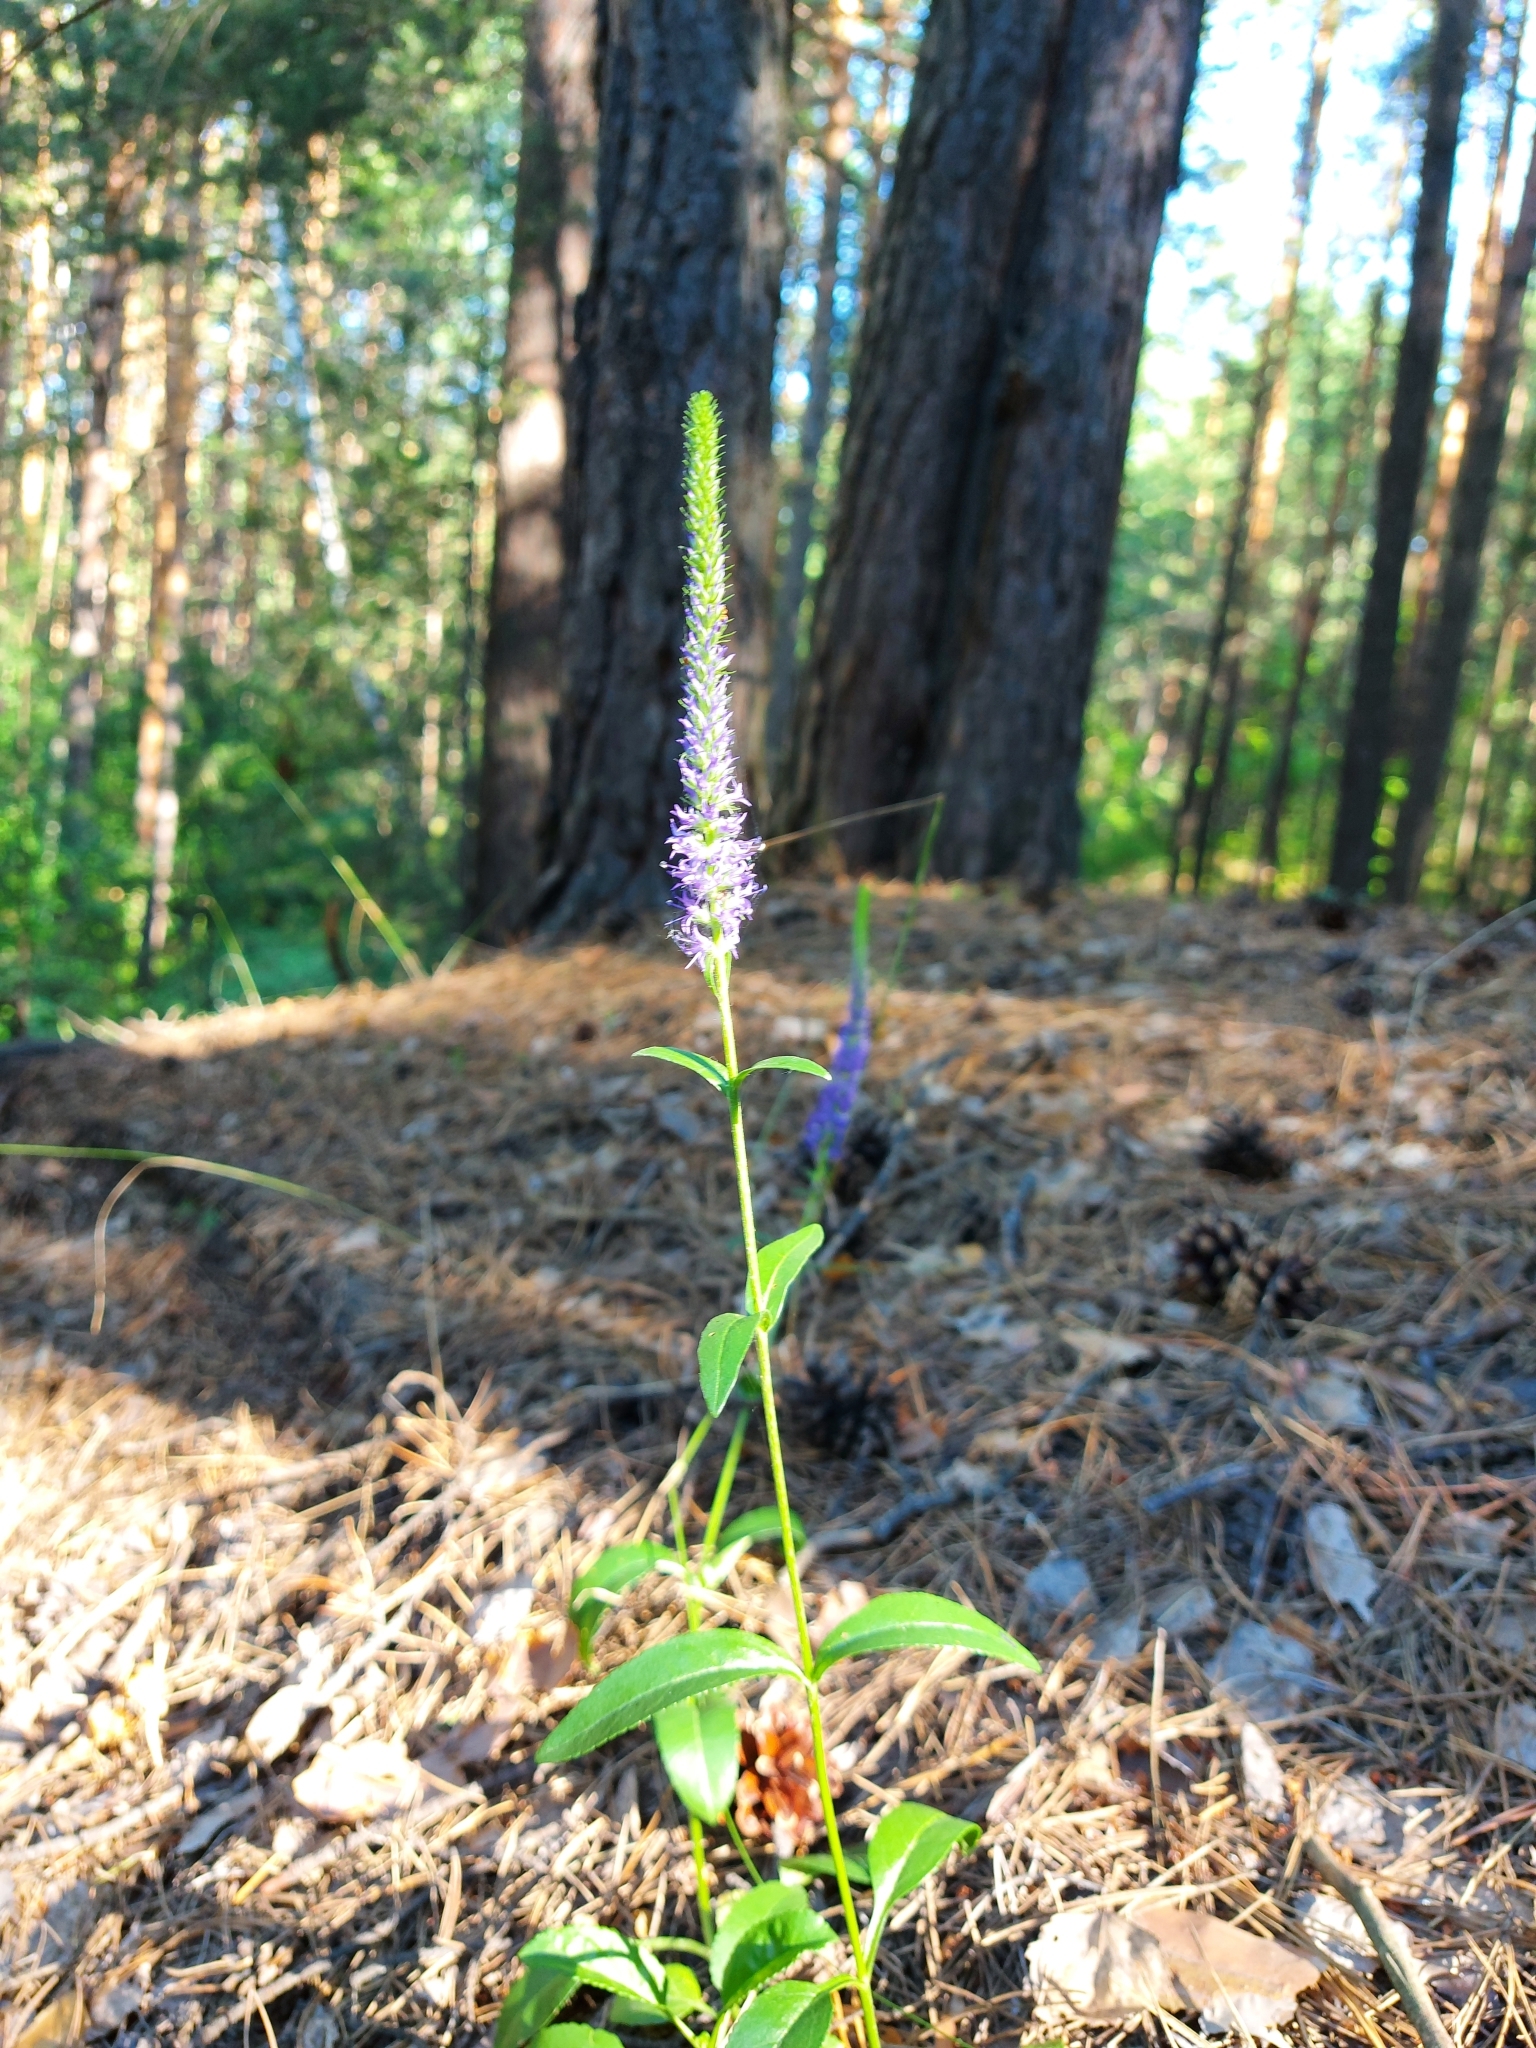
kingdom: Plantae
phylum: Tracheophyta
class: Magnoliopsida
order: Lamiales
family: Plantaginaceae
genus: Veronica
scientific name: Veronica spicata
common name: Spiked speedwell
